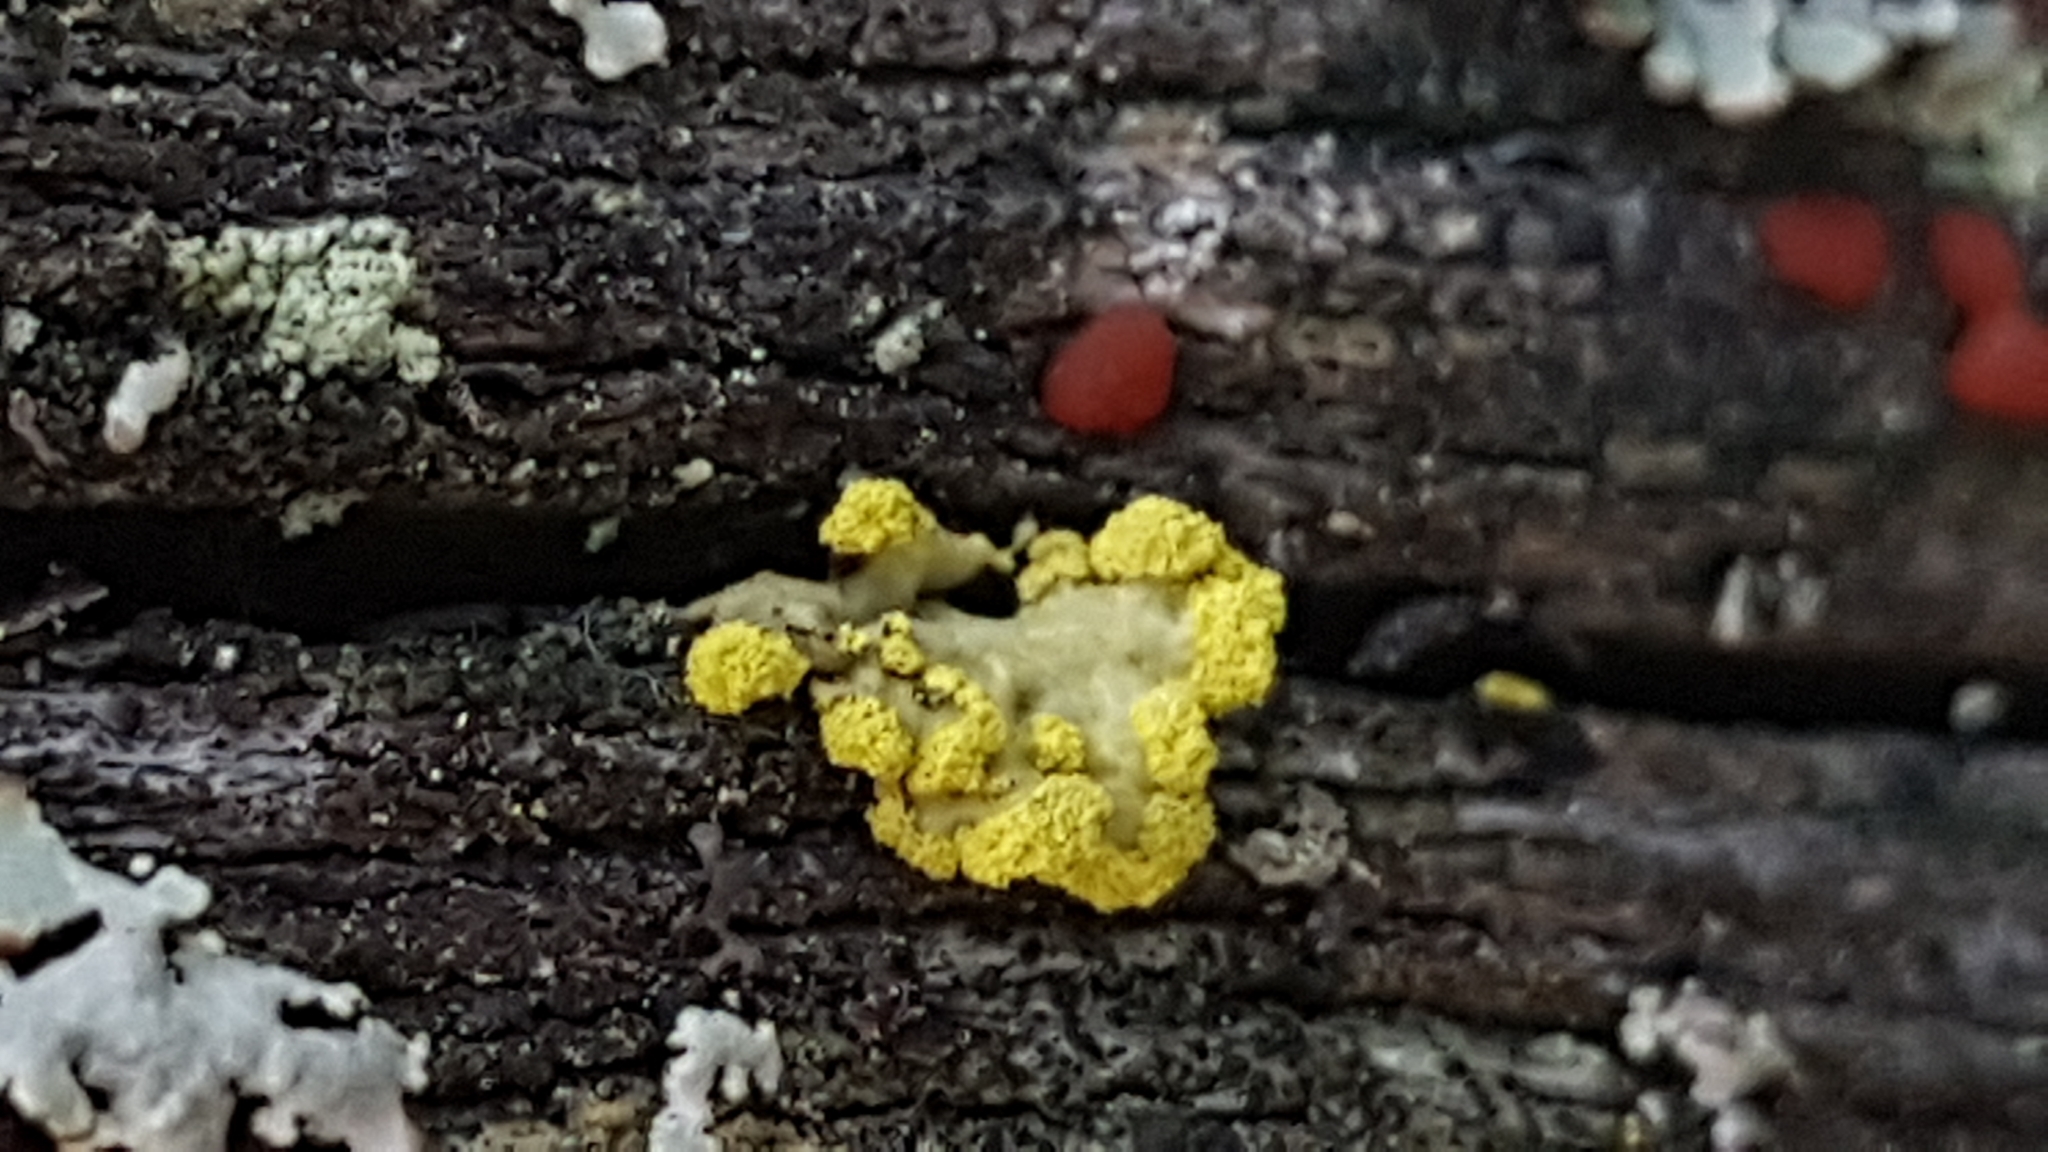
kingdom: Fungi
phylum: Ascomycota
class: Lecanoromycetes
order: Lecanorales
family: Parmeliaceae
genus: Vulpicida
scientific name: Vulpicida pinastri
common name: Powdered sunshine lichen
